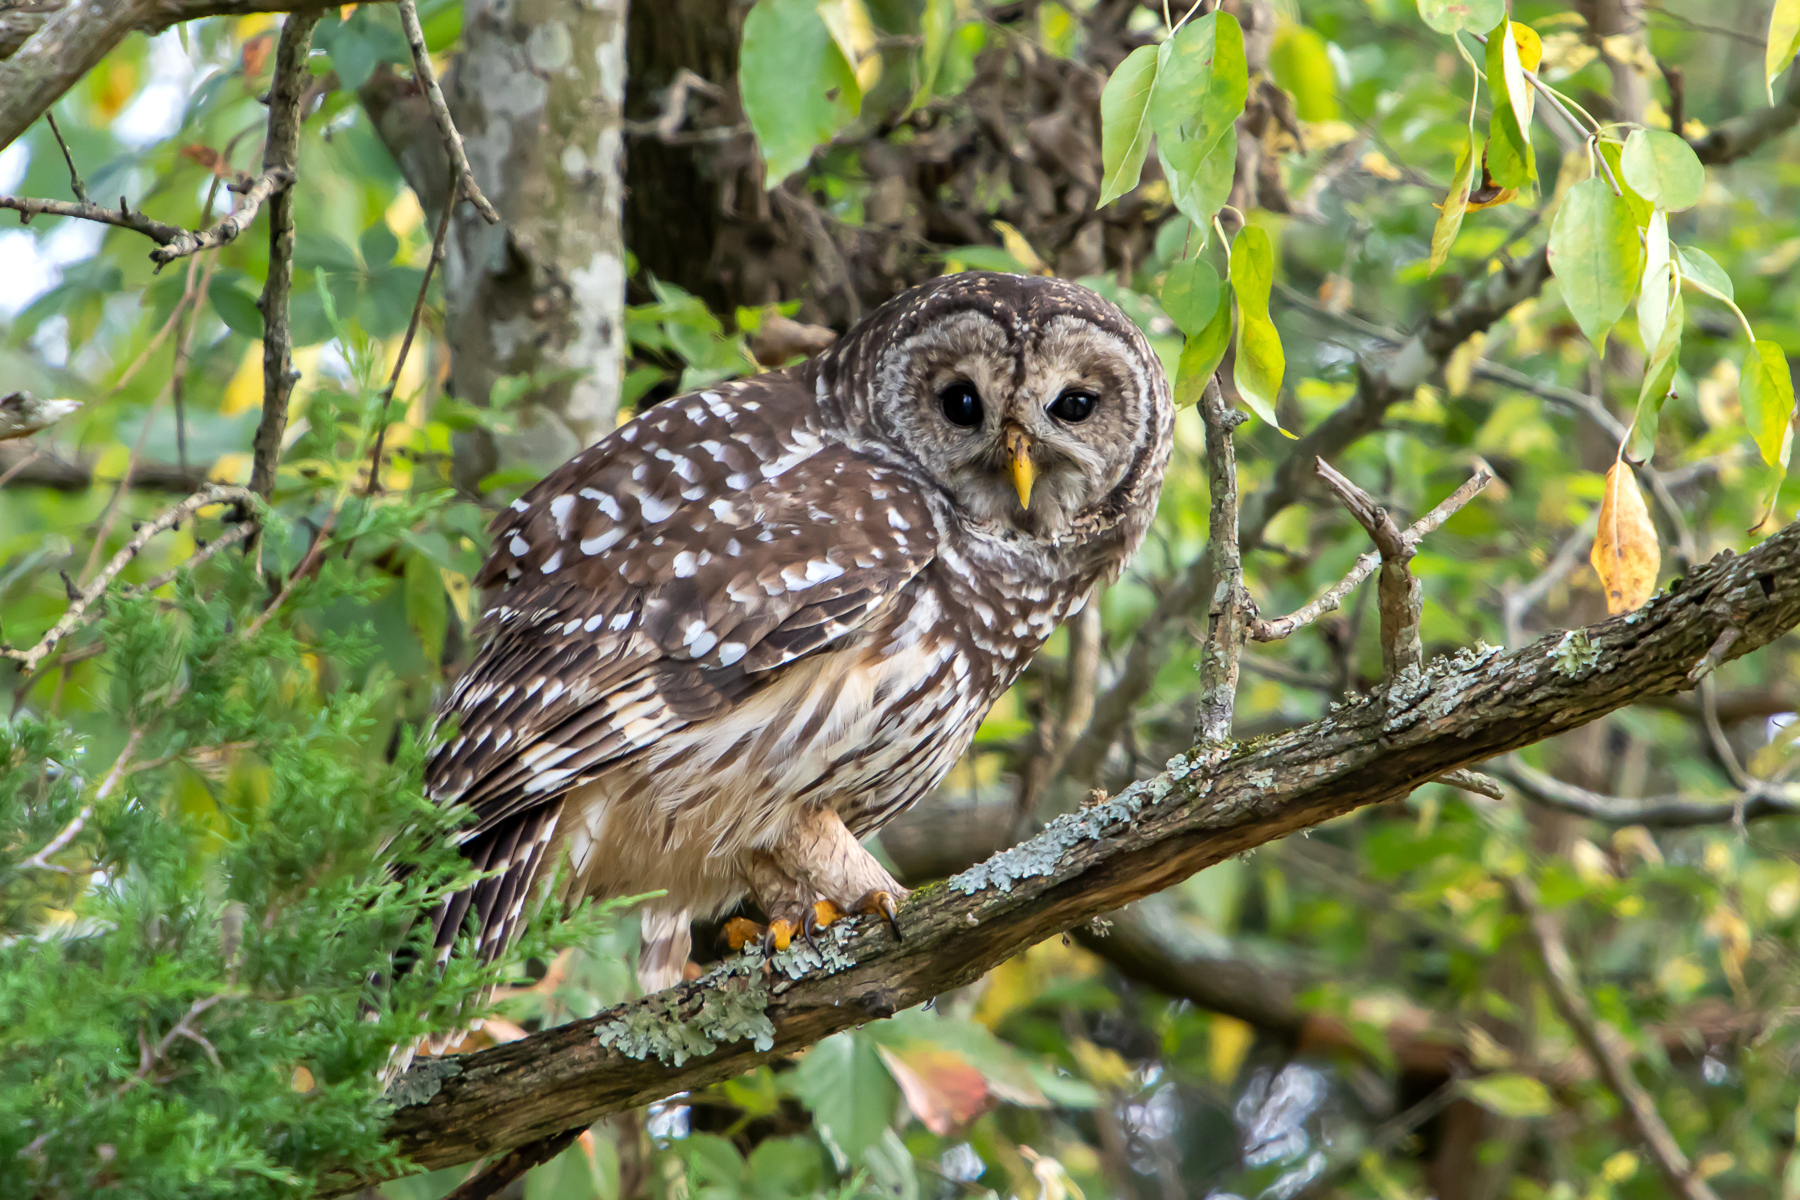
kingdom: Animalia
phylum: Chordata
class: Aves
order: Strigiformes
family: Strigidae
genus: Strix
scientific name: Strix varia
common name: Barred owl
